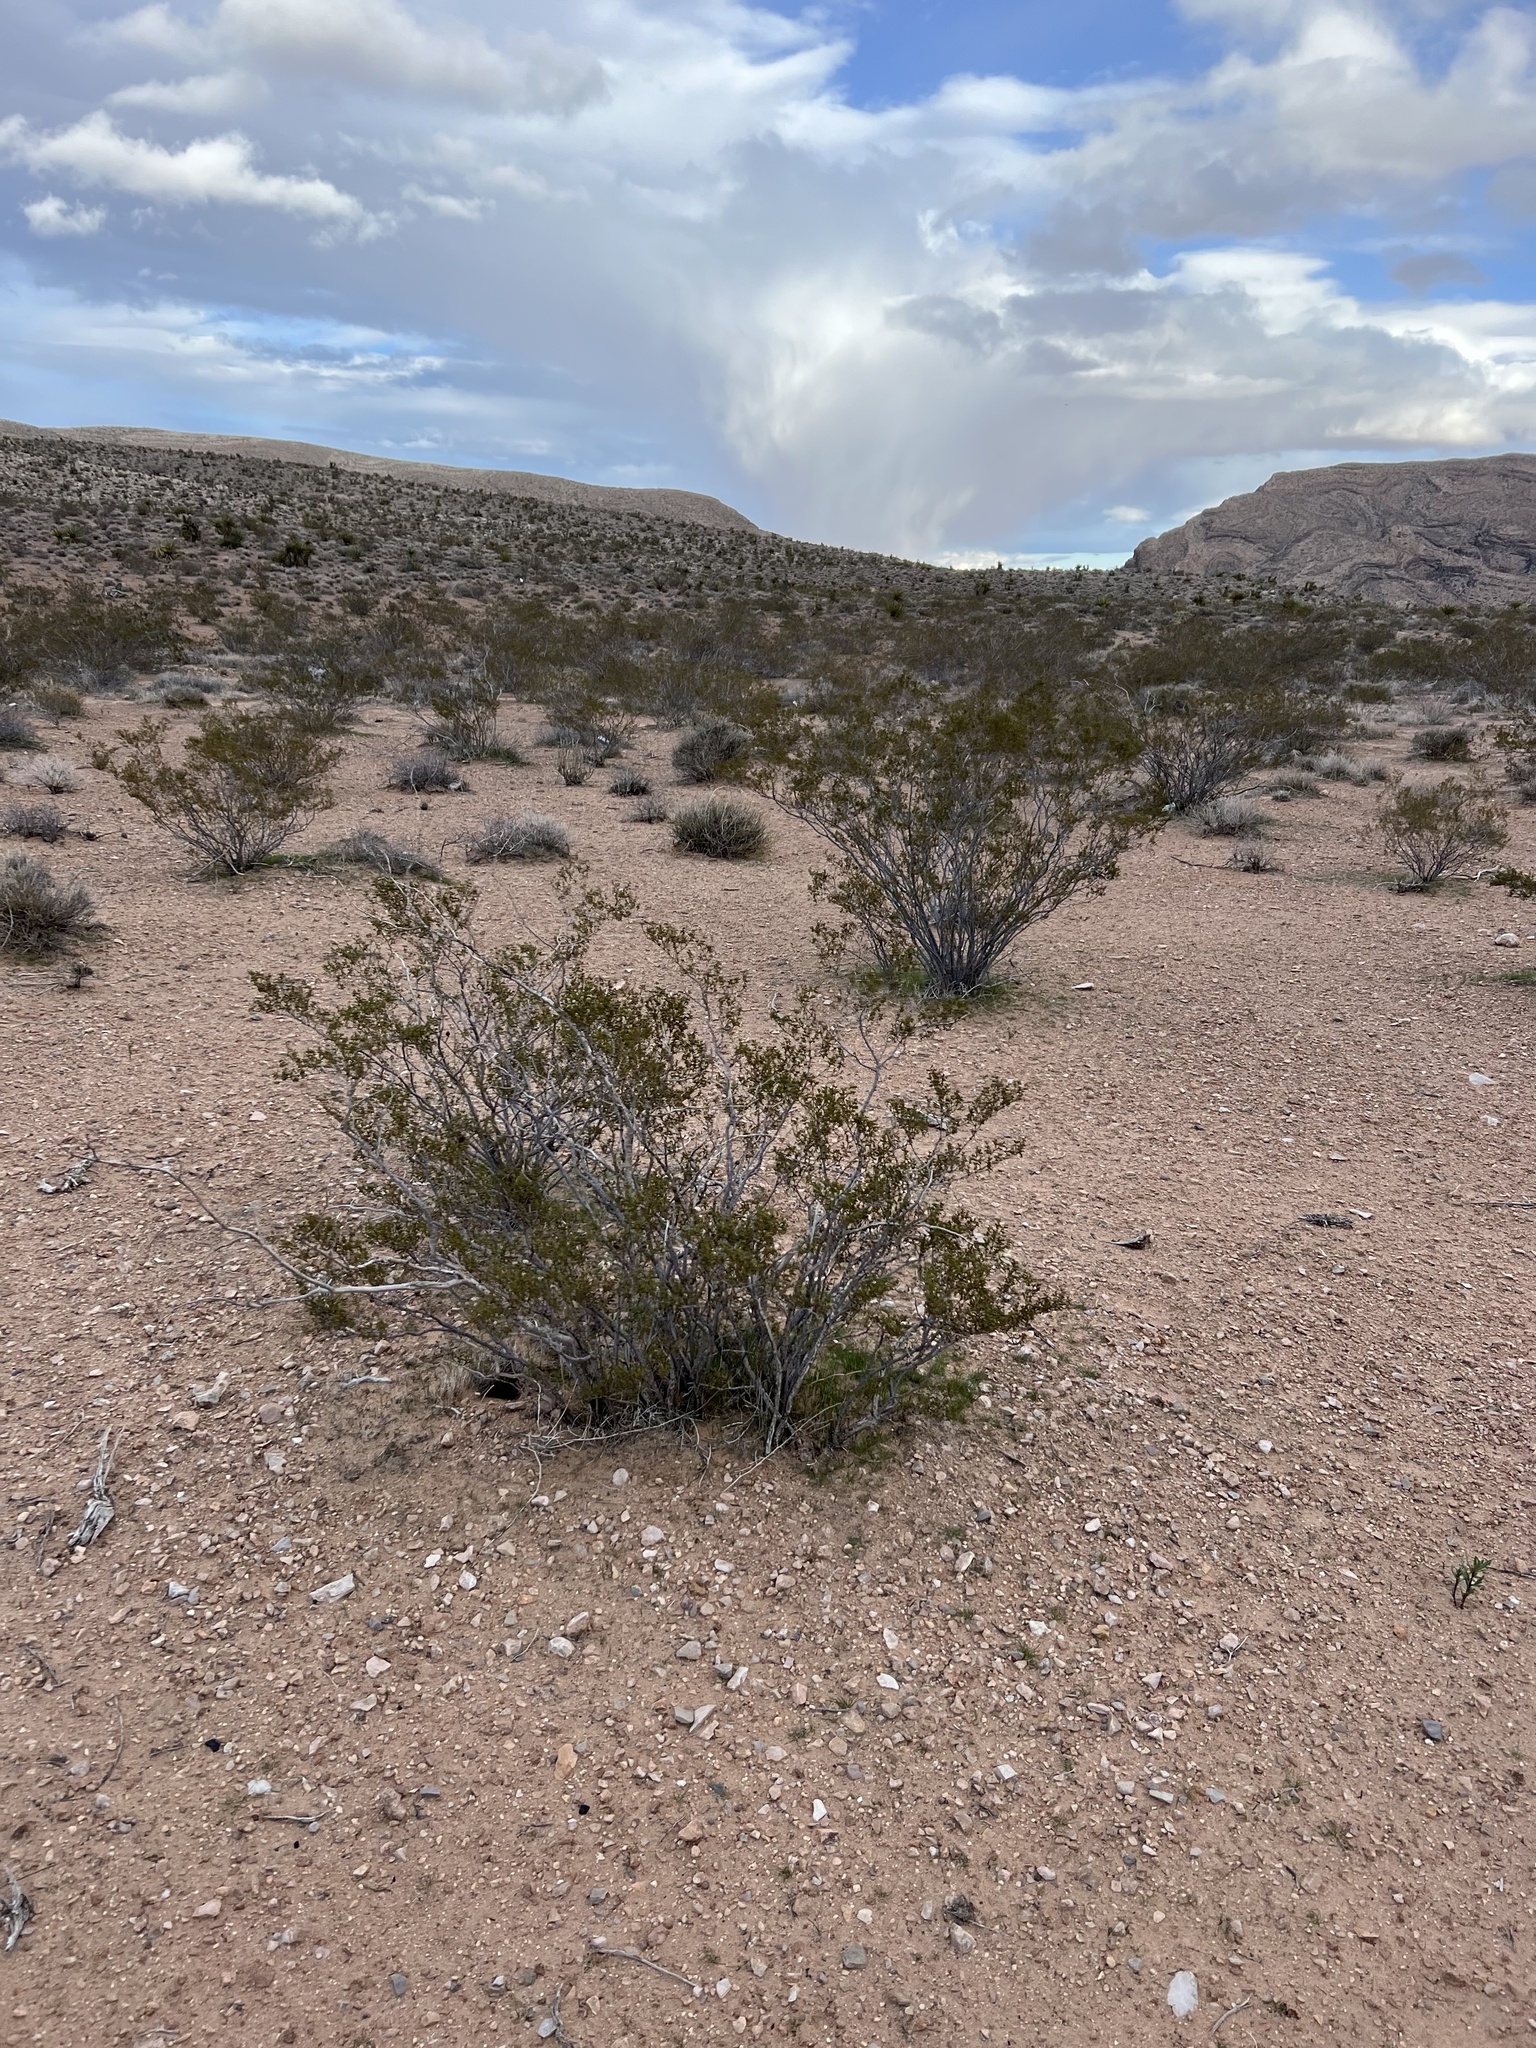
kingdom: Plantae
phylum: Tracheophyta
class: Magnoliopsida
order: Zygophyllales
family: Zygophyllaceae
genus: Larrea
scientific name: Larrea tridentata
